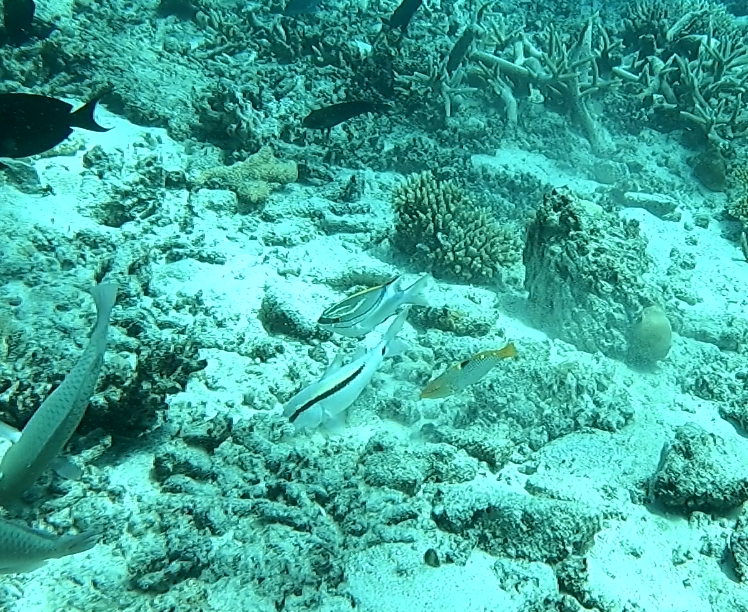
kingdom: Animalia
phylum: Chordata
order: Perciformes
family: Mullidae
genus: Parupeneus
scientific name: Parupeneus barberinus
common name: Dash-and-dot goatfish
